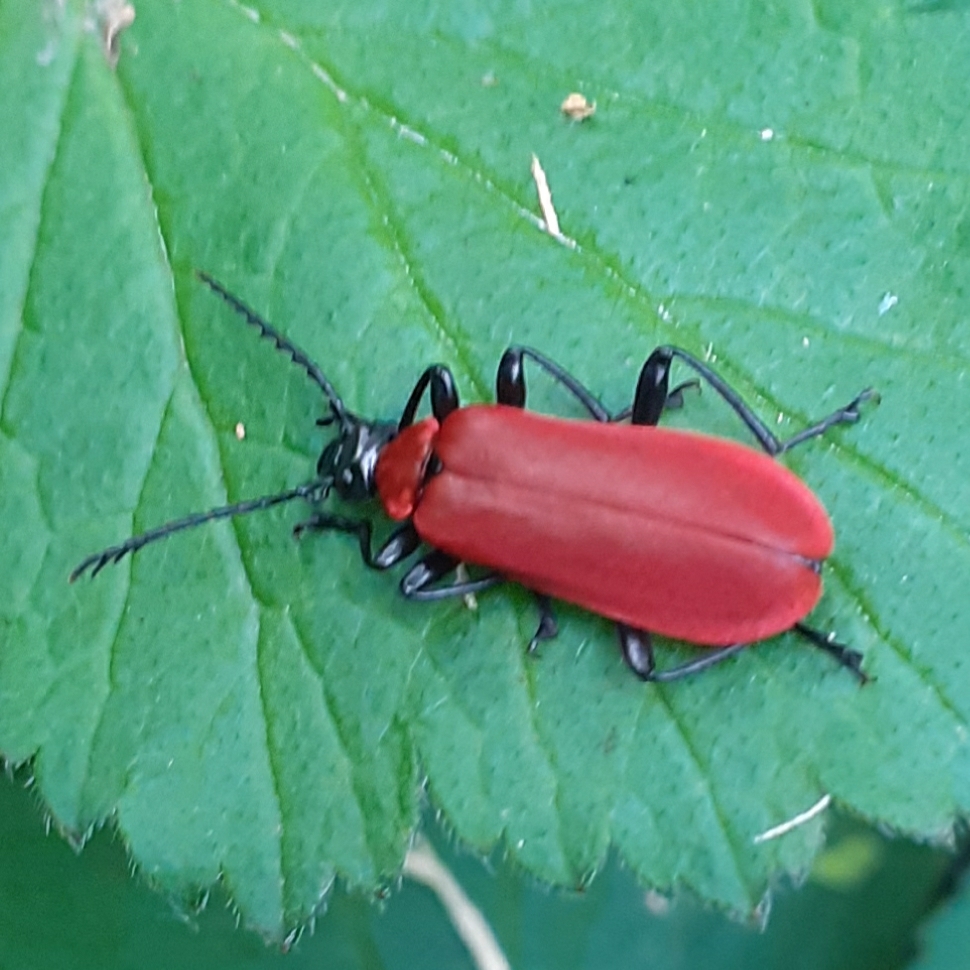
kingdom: Animalia
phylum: Arthropoda
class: Insecta
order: Coleoptera
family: Pyrochroidae
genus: Pyrochroa
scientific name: Pyrochroa coccinea
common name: Black-headed cardinal beetle
